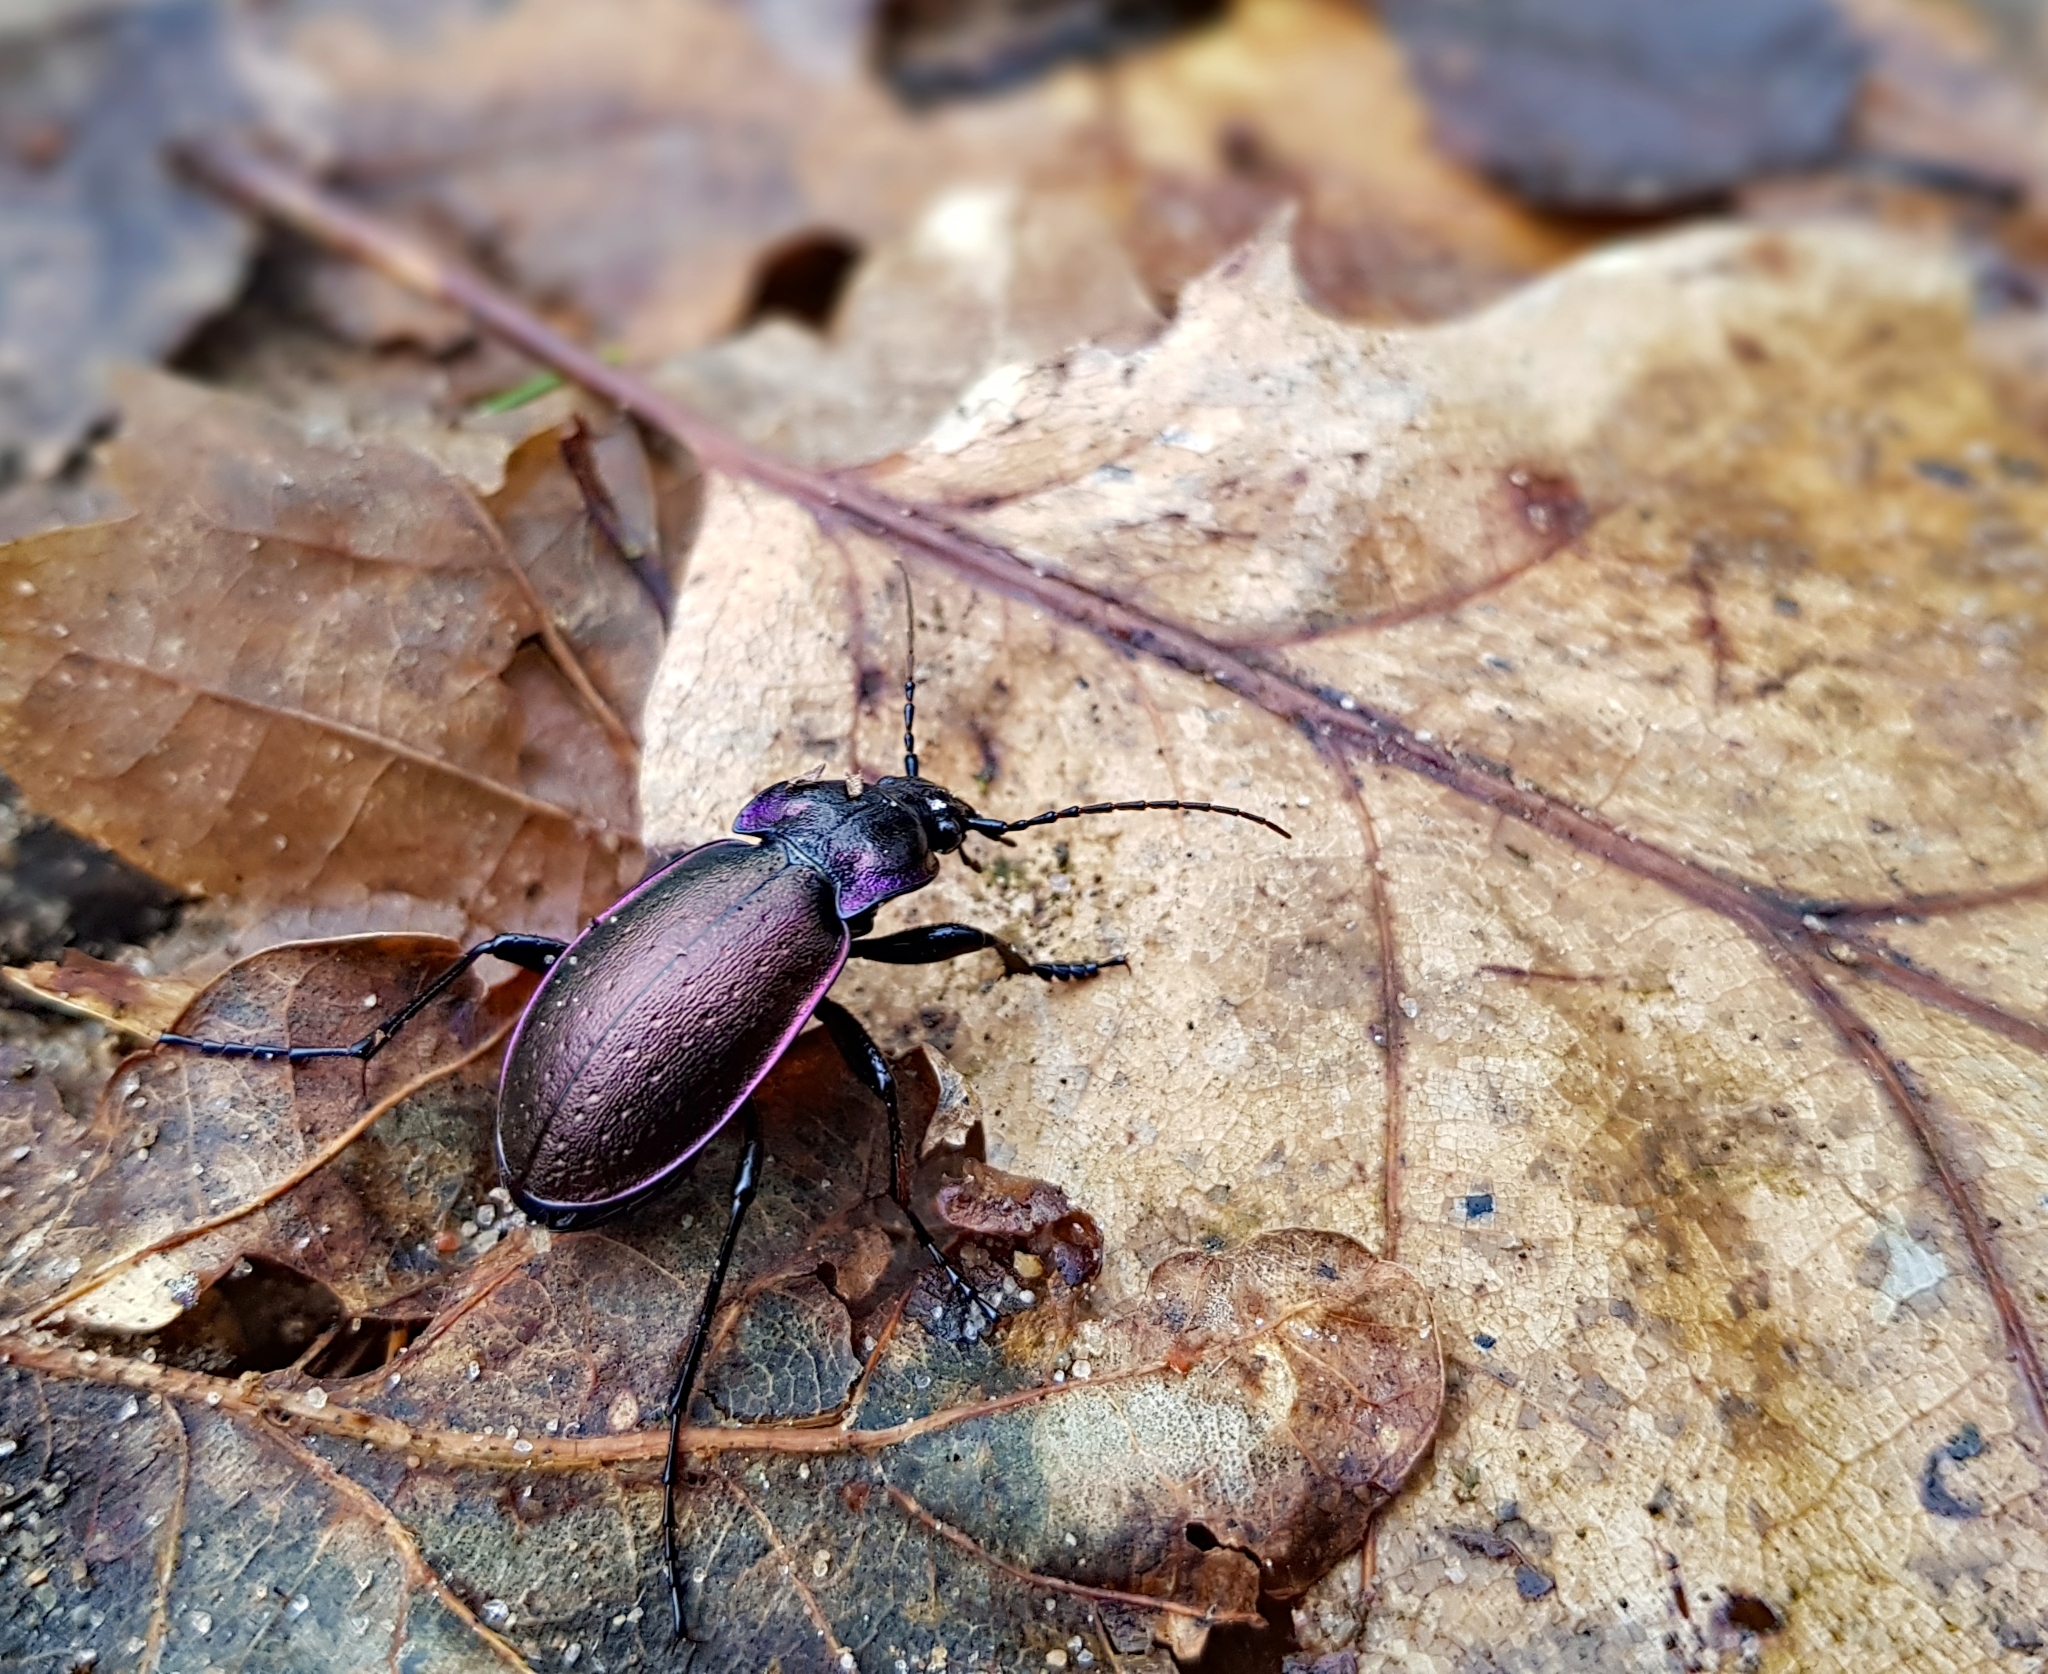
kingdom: Animalia
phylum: Arthropoda
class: Insecta
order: Coleoptera
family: Carabidae
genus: Carabus
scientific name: Carabus nemoralis
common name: European ground beetle
